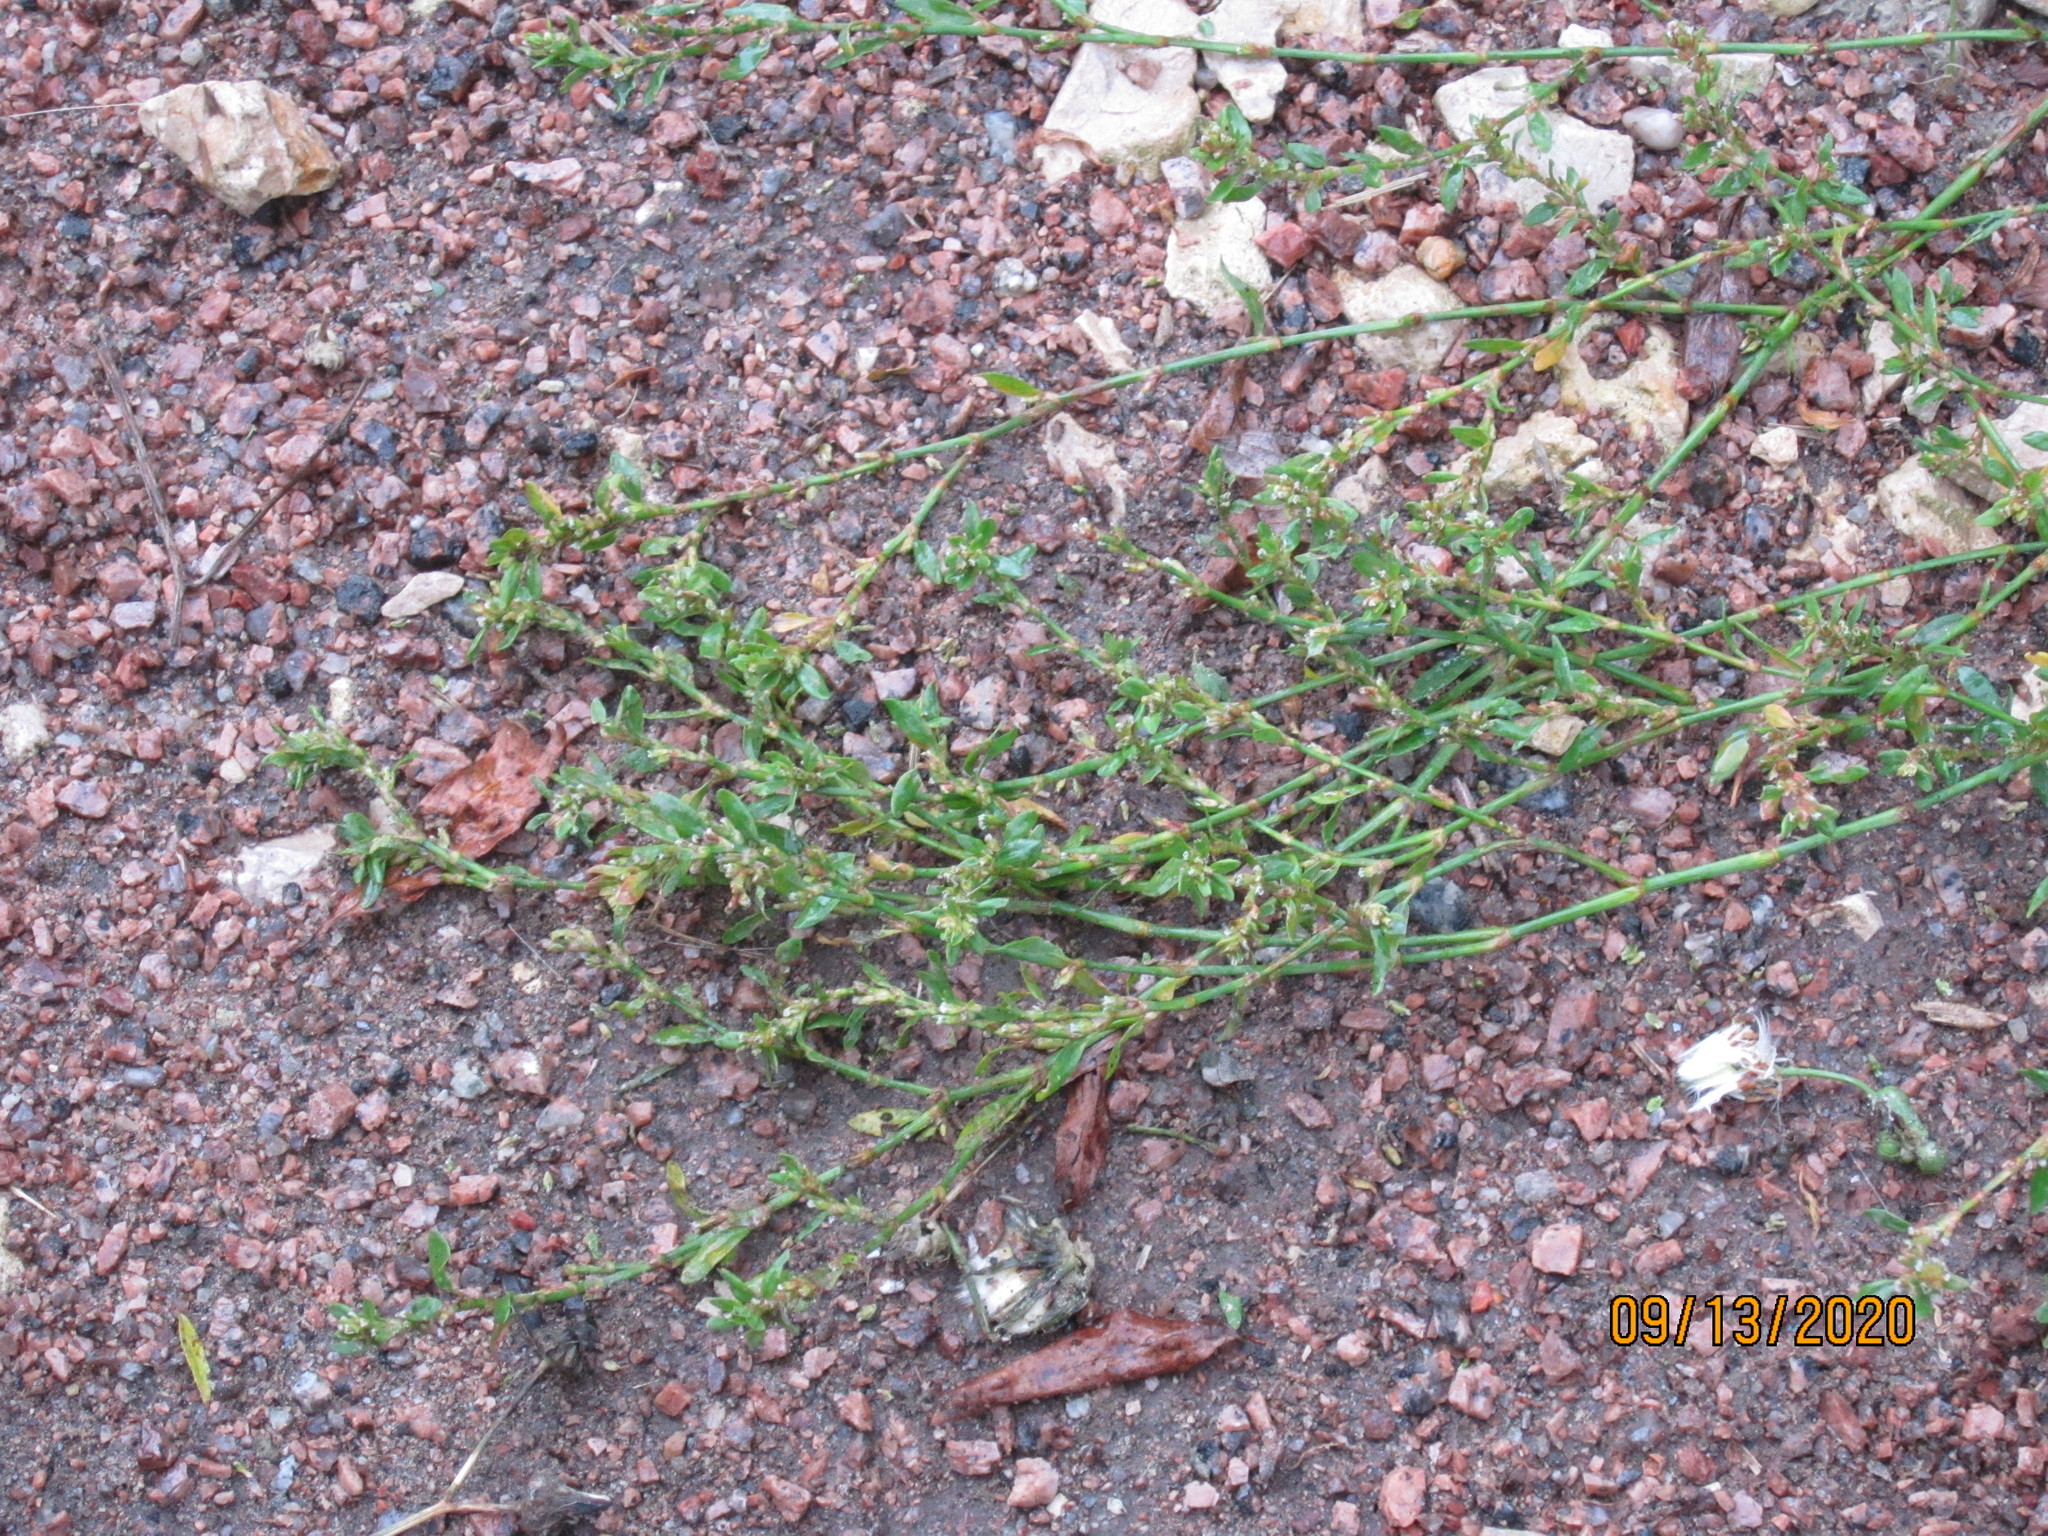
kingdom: Plantae
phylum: Tracheophyta
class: Magnoliopsida
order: Caryophyllales
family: Polygonaceae
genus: Polygonum
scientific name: Polygonum
